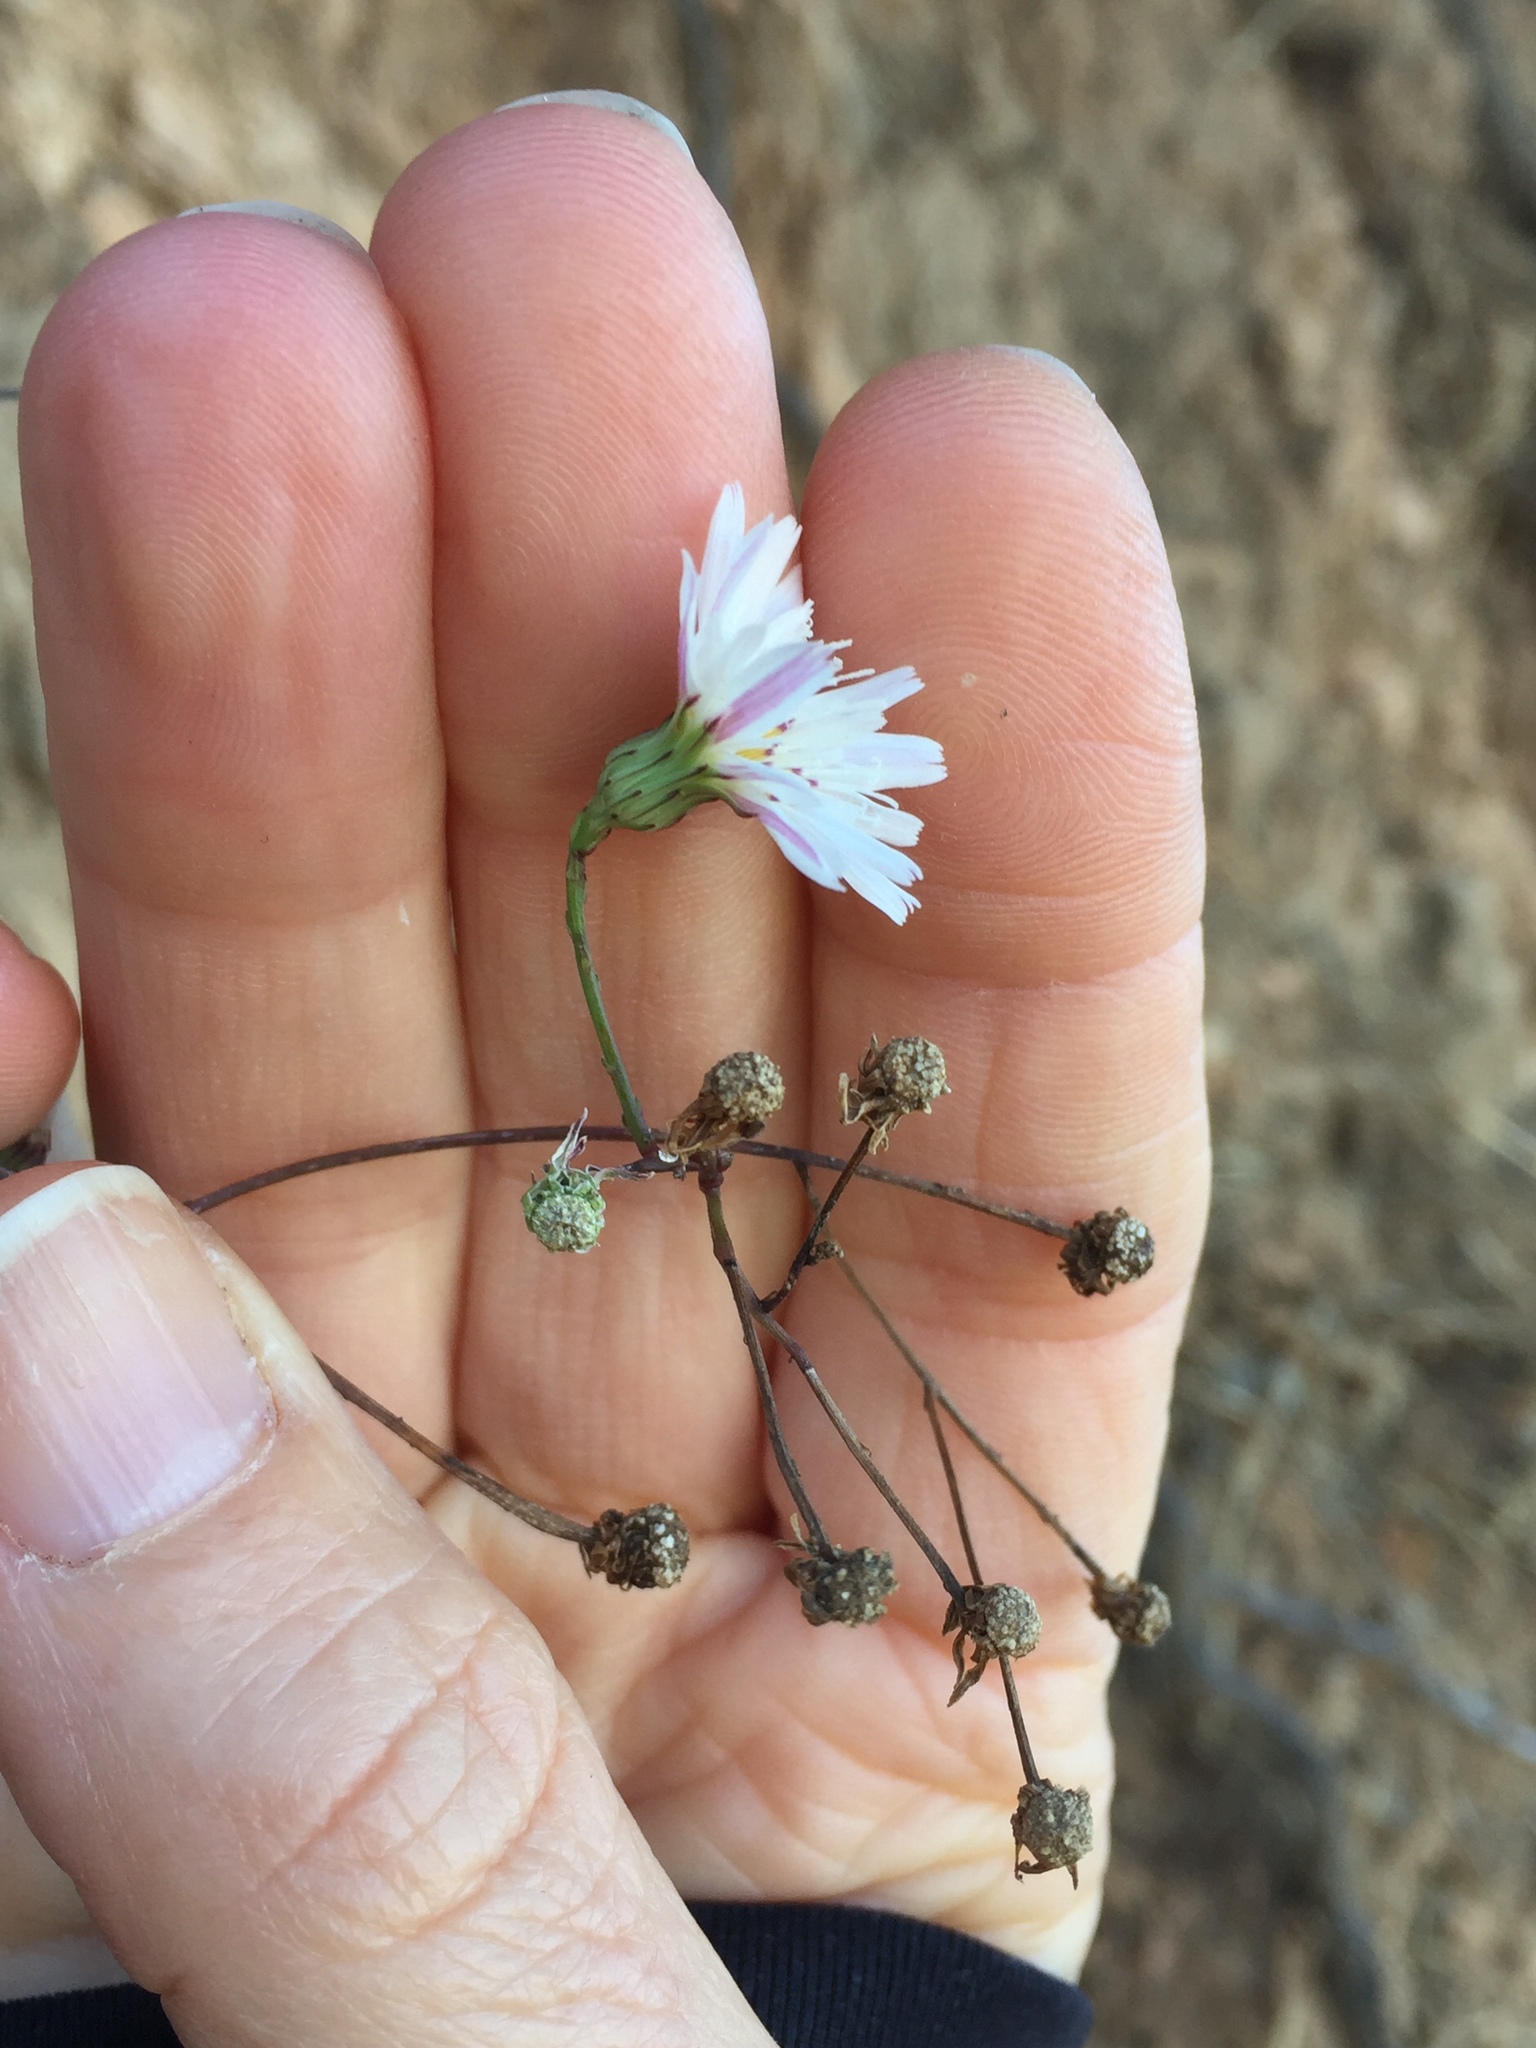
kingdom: Plantae
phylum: Tracheophyta
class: Magnoliopsida
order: Asterales
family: Asteraceae
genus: Malacothrix
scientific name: Malacothrix saxatilis
